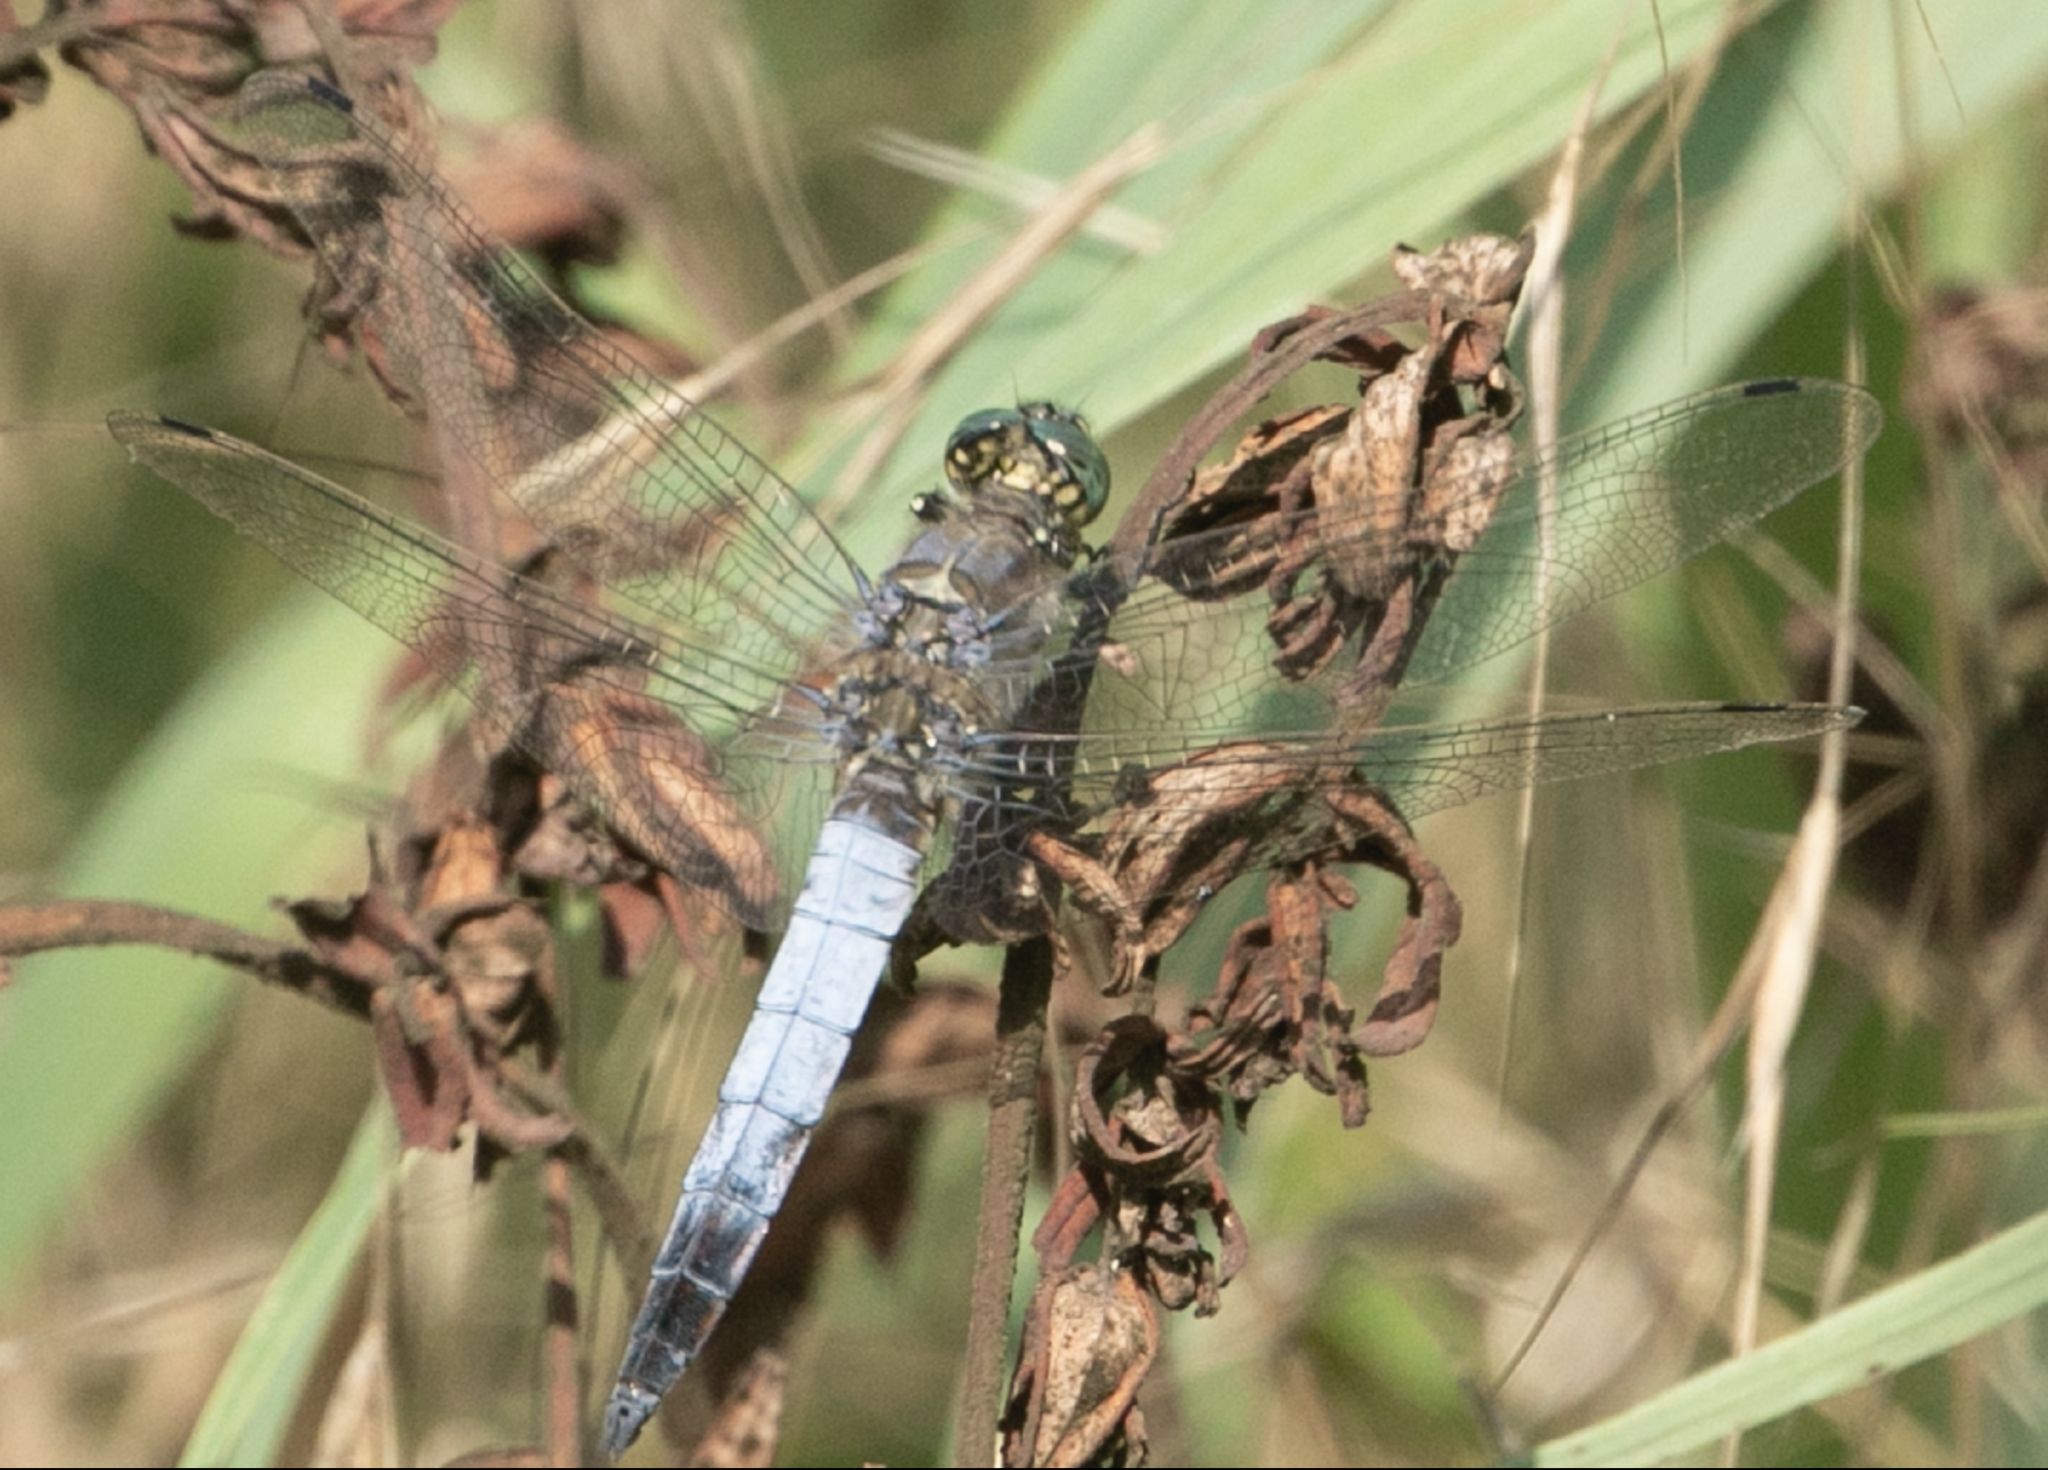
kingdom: Animalia
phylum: Arthropoda
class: Insecta
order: Odonata
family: Libellulidae
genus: Orthetrum
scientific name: Orthetrum cancellatum
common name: Black-tailed skimmer
